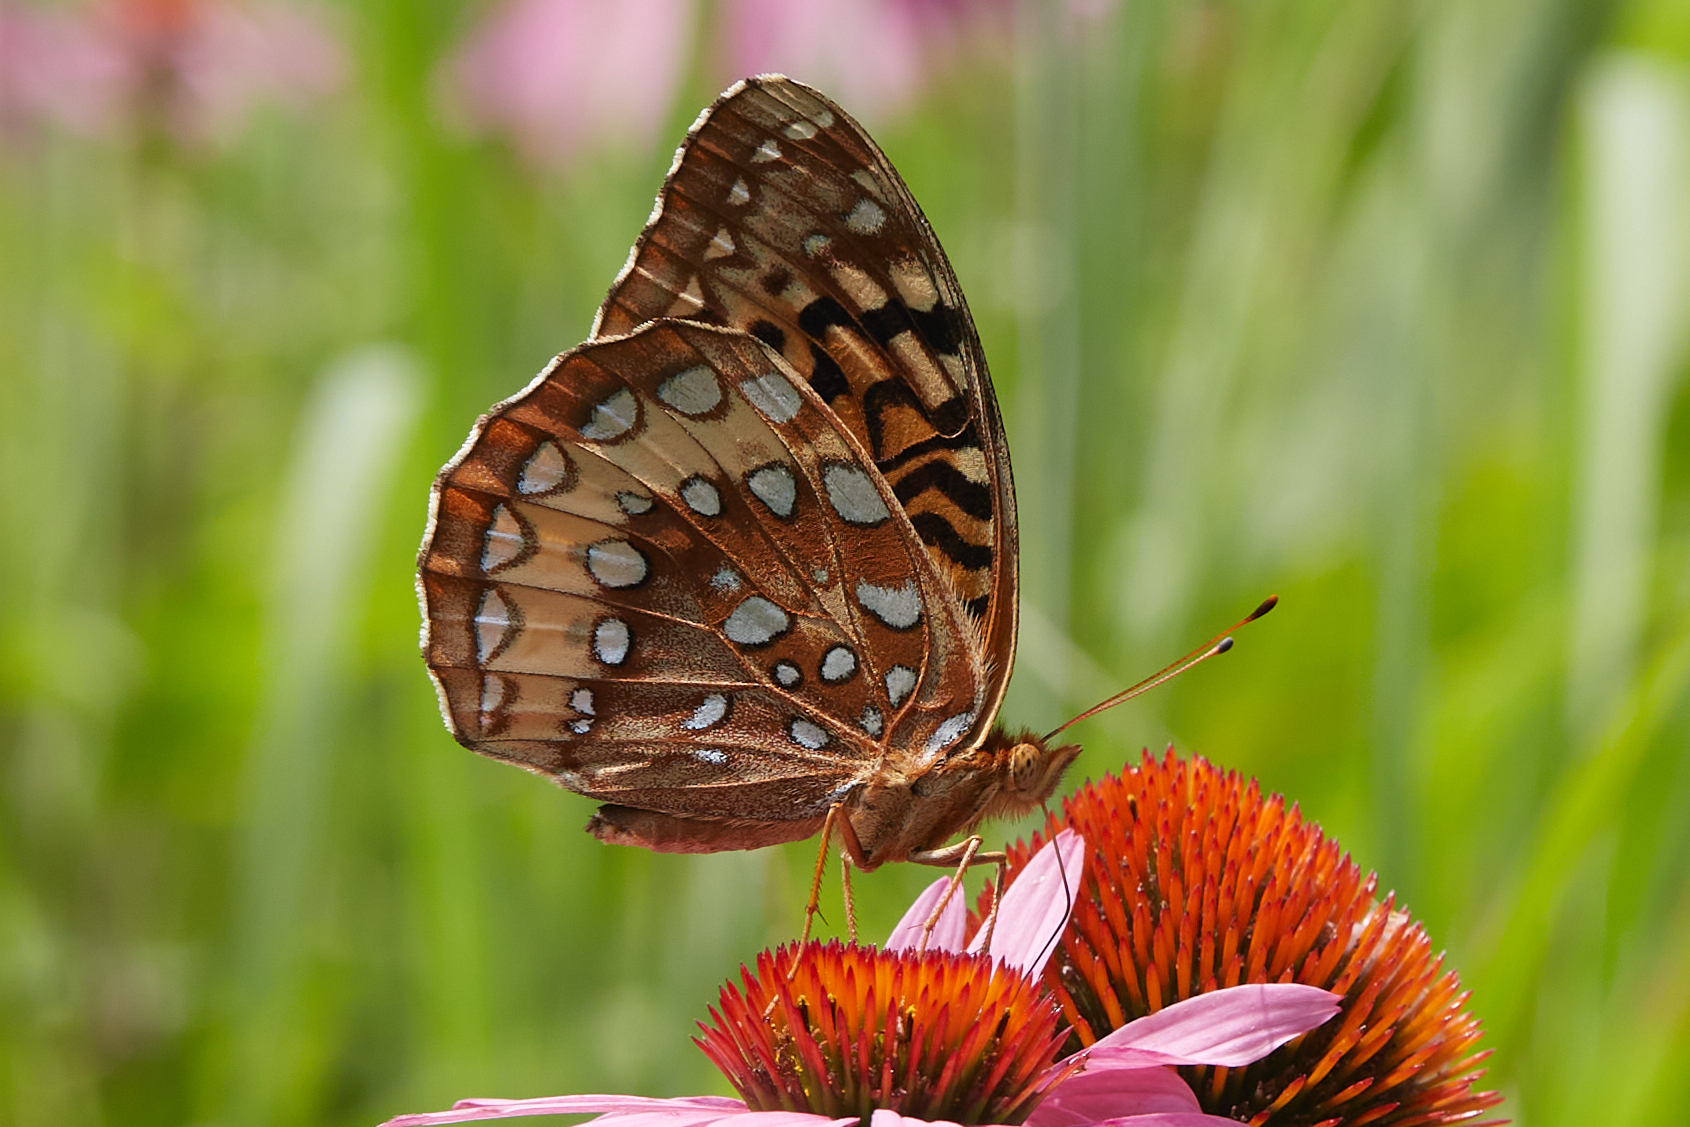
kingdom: Animalia
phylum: Arthropoda
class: Insecta
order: Lepidoptera
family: Nymphalidae
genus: Speyeria
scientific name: Speyeria cybele
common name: Great spangled fritillary
